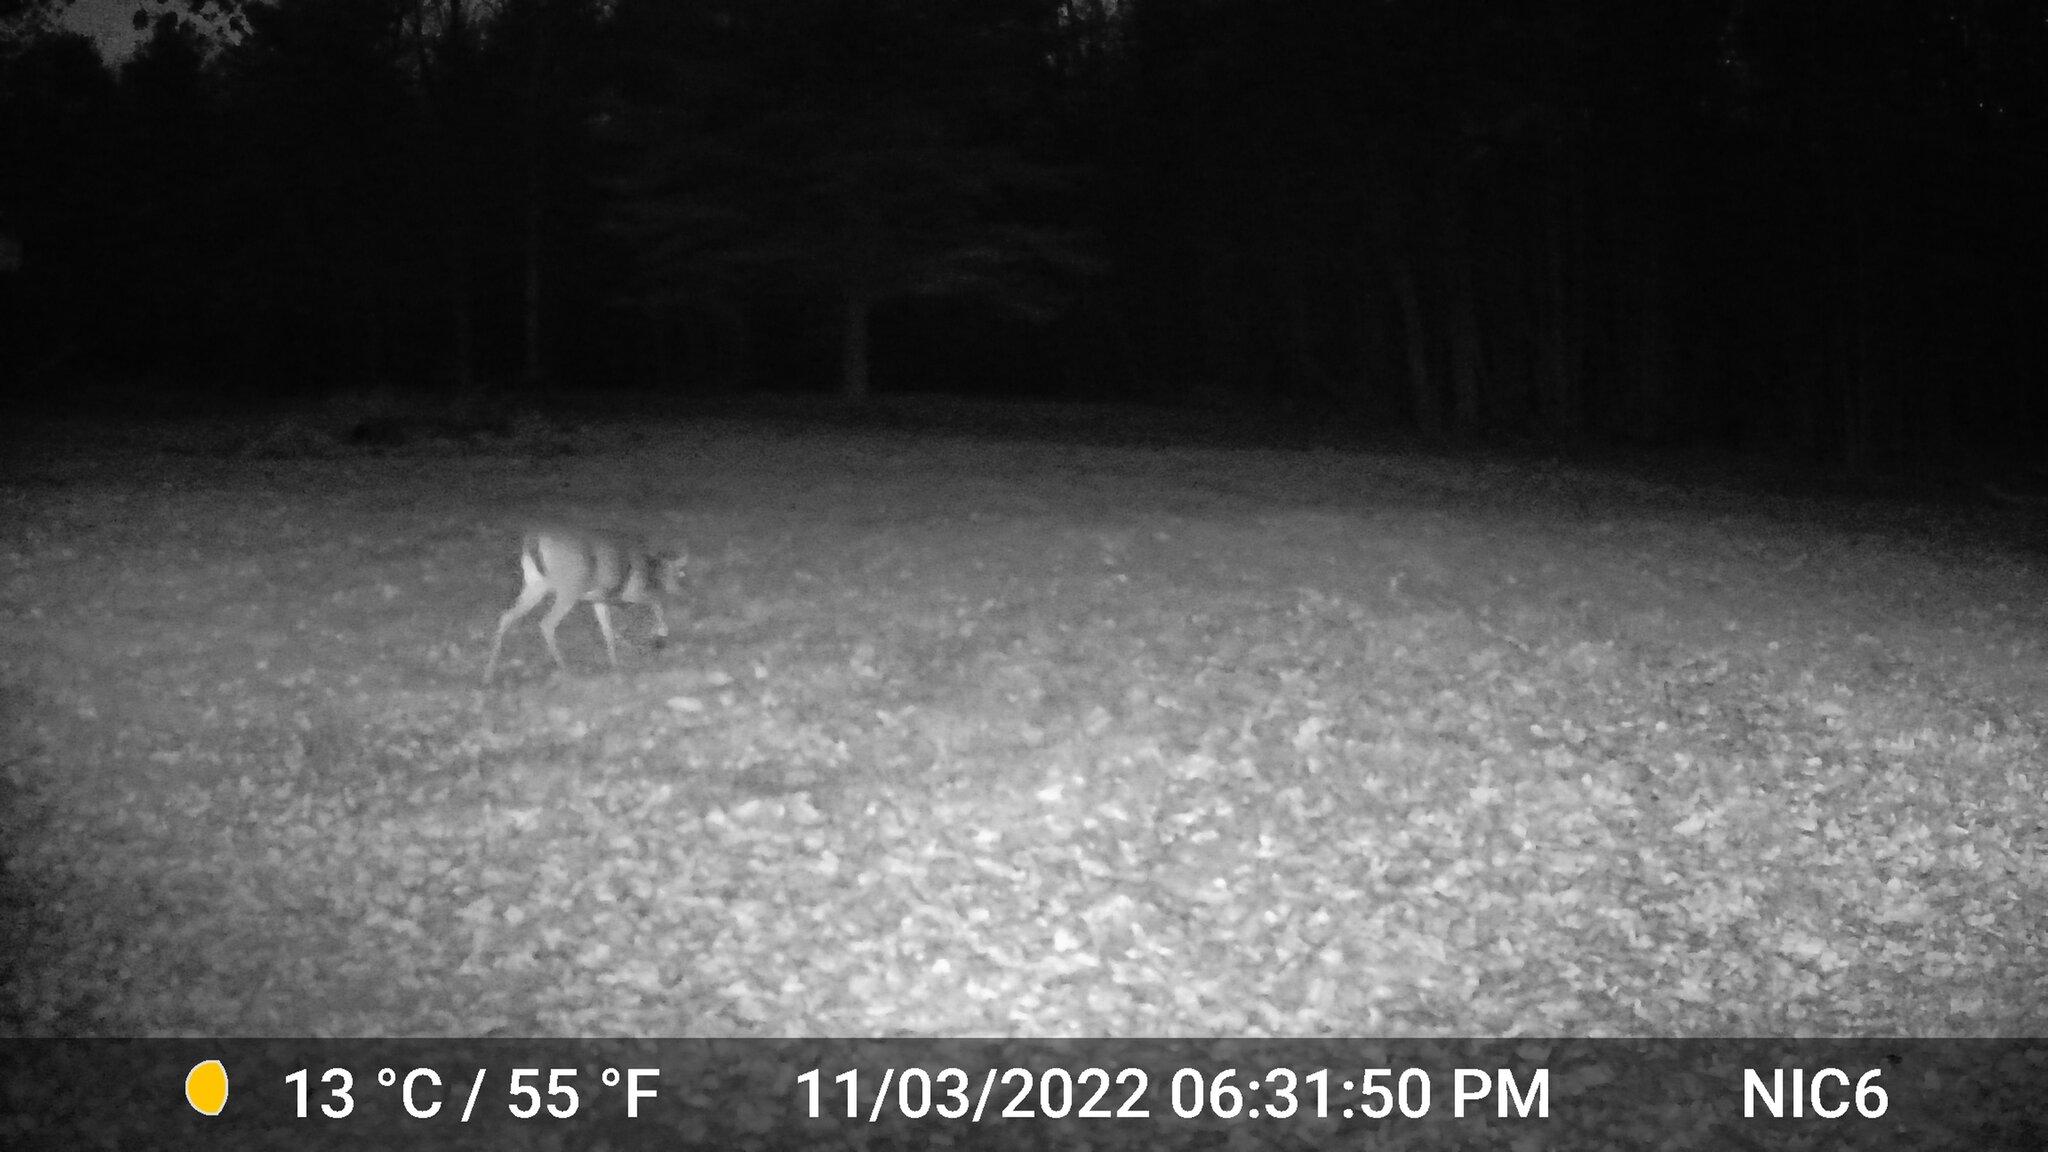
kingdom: Animalia
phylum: Chordata
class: Mammalia
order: Artiodactyla
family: Cervidae
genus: Odocoileus
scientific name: Odocoileus virginianus
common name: White-tailed deer
